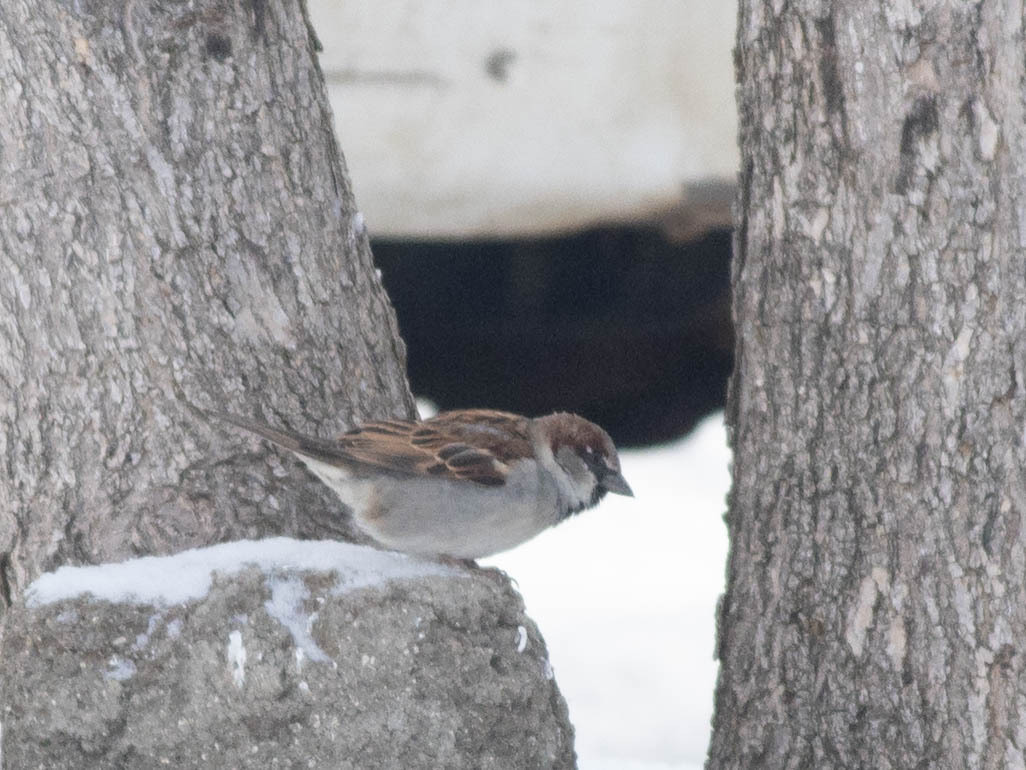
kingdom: Animalia
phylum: Chordata
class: Aves
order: Passeriformes
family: Passeridae
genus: Passer
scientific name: Passer domesticus
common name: House sparrow
